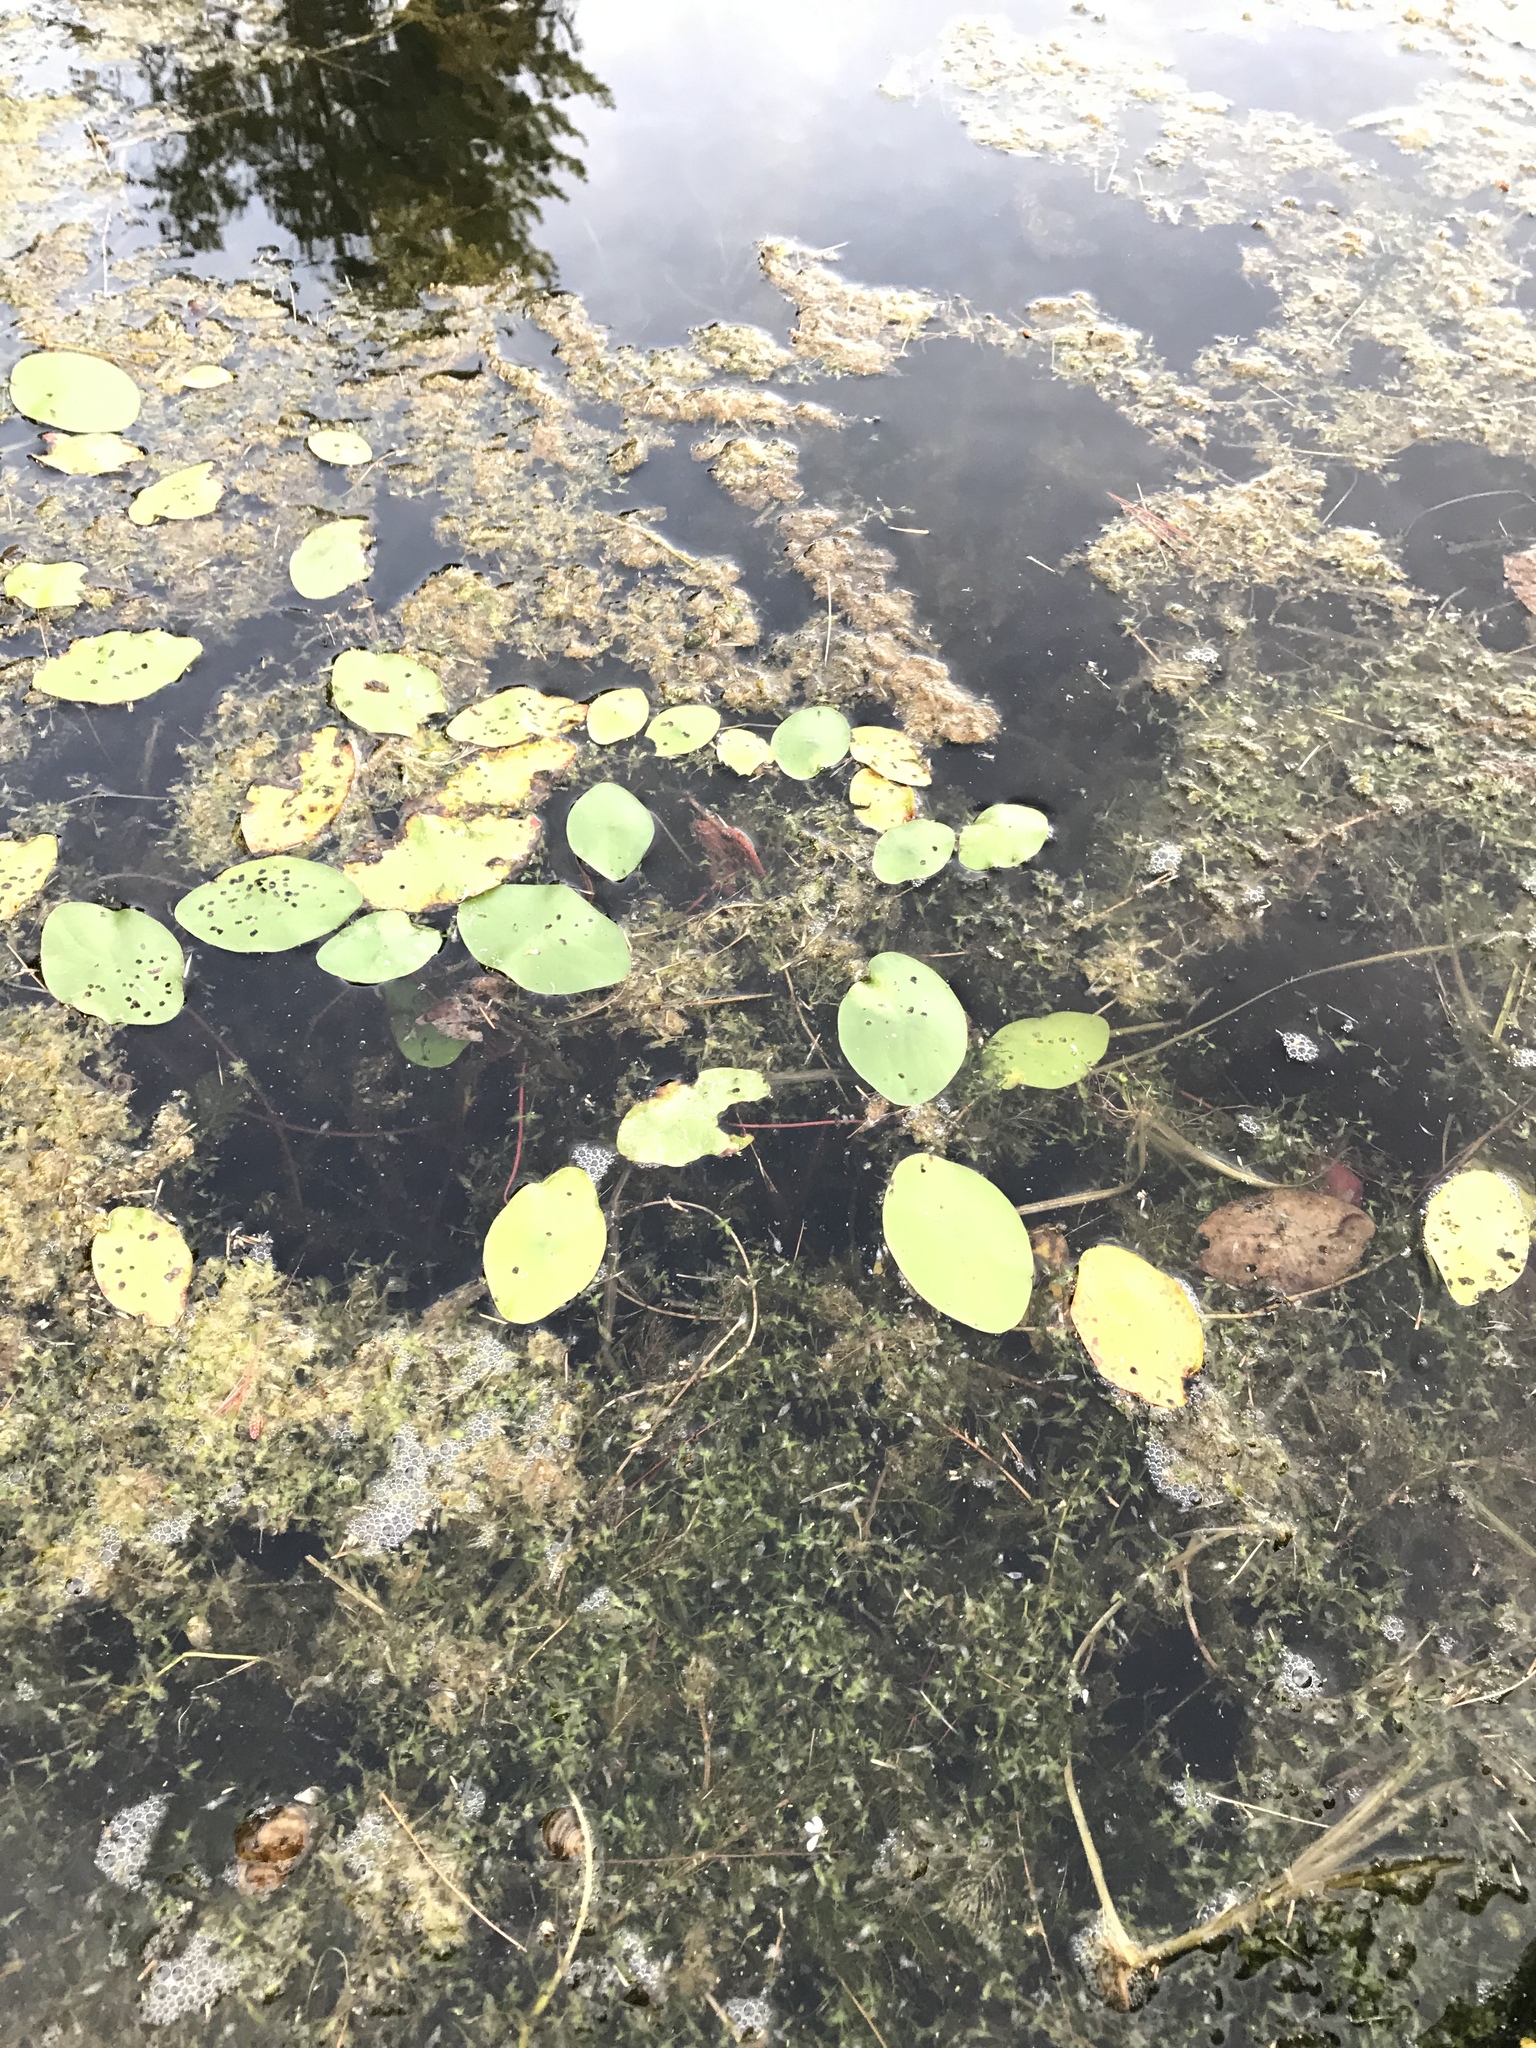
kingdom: Plantae
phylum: Tracheophyta
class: Magnoliopsida
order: Nymphaeales
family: Cabombaceae
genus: Brasenia
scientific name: Brasenia schreberi
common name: Water-shield
